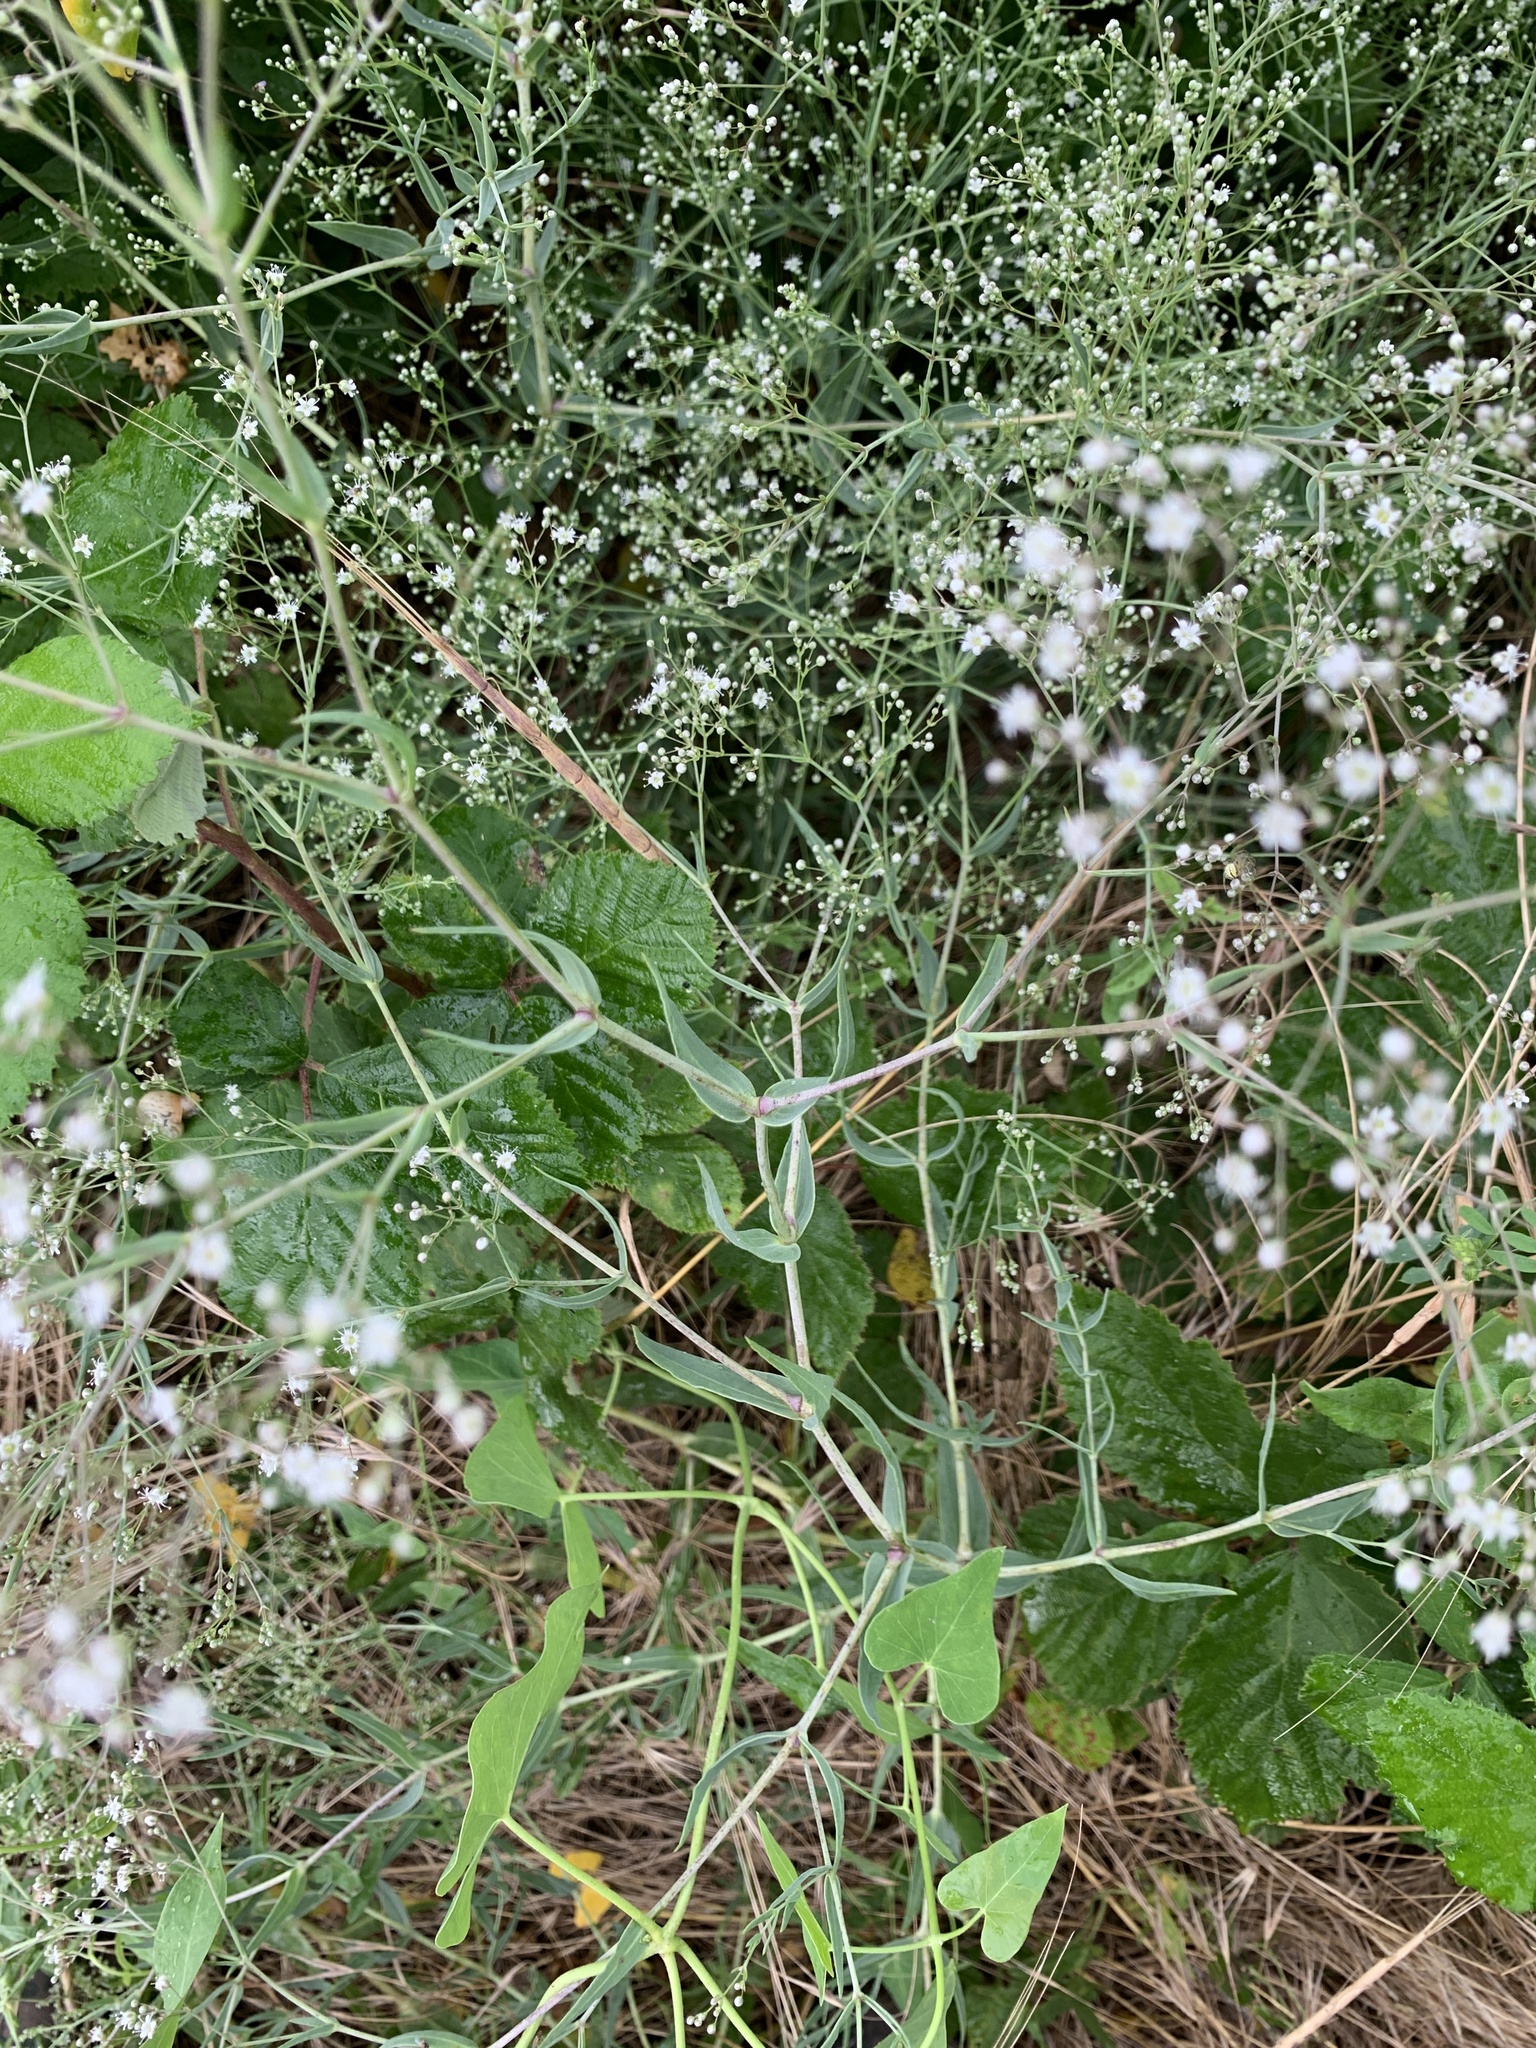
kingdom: Plantae
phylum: Tracheophyta
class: Magnoliopsida
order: Caryophyllales
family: Caryophyllaceae
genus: Gypsophila
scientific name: Gypsophila paniculata
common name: Baby's-breath
